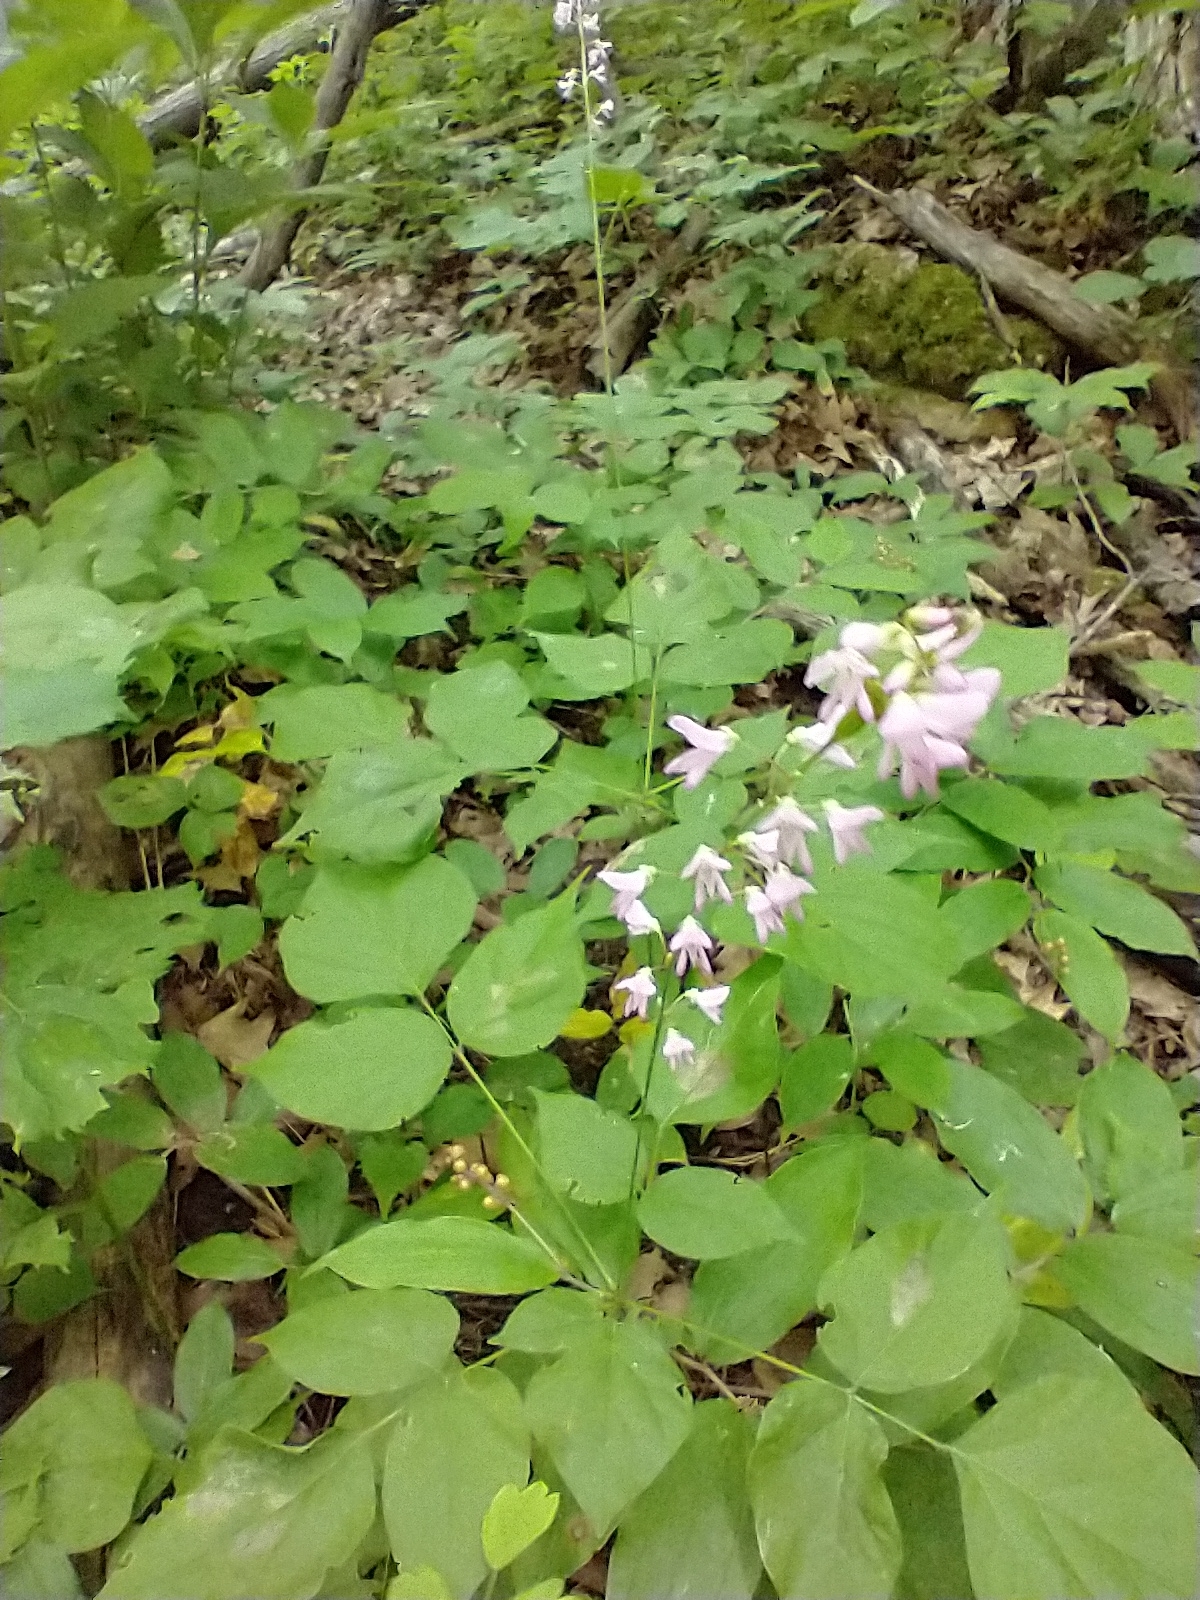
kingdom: Plantae
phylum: Tracheophyta
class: Magnoliopsida
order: Fabales
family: Fabaceae
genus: Hylodesmum
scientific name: Hylodesmum glutinosum
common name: Clustered-leaved tick-trefoil
